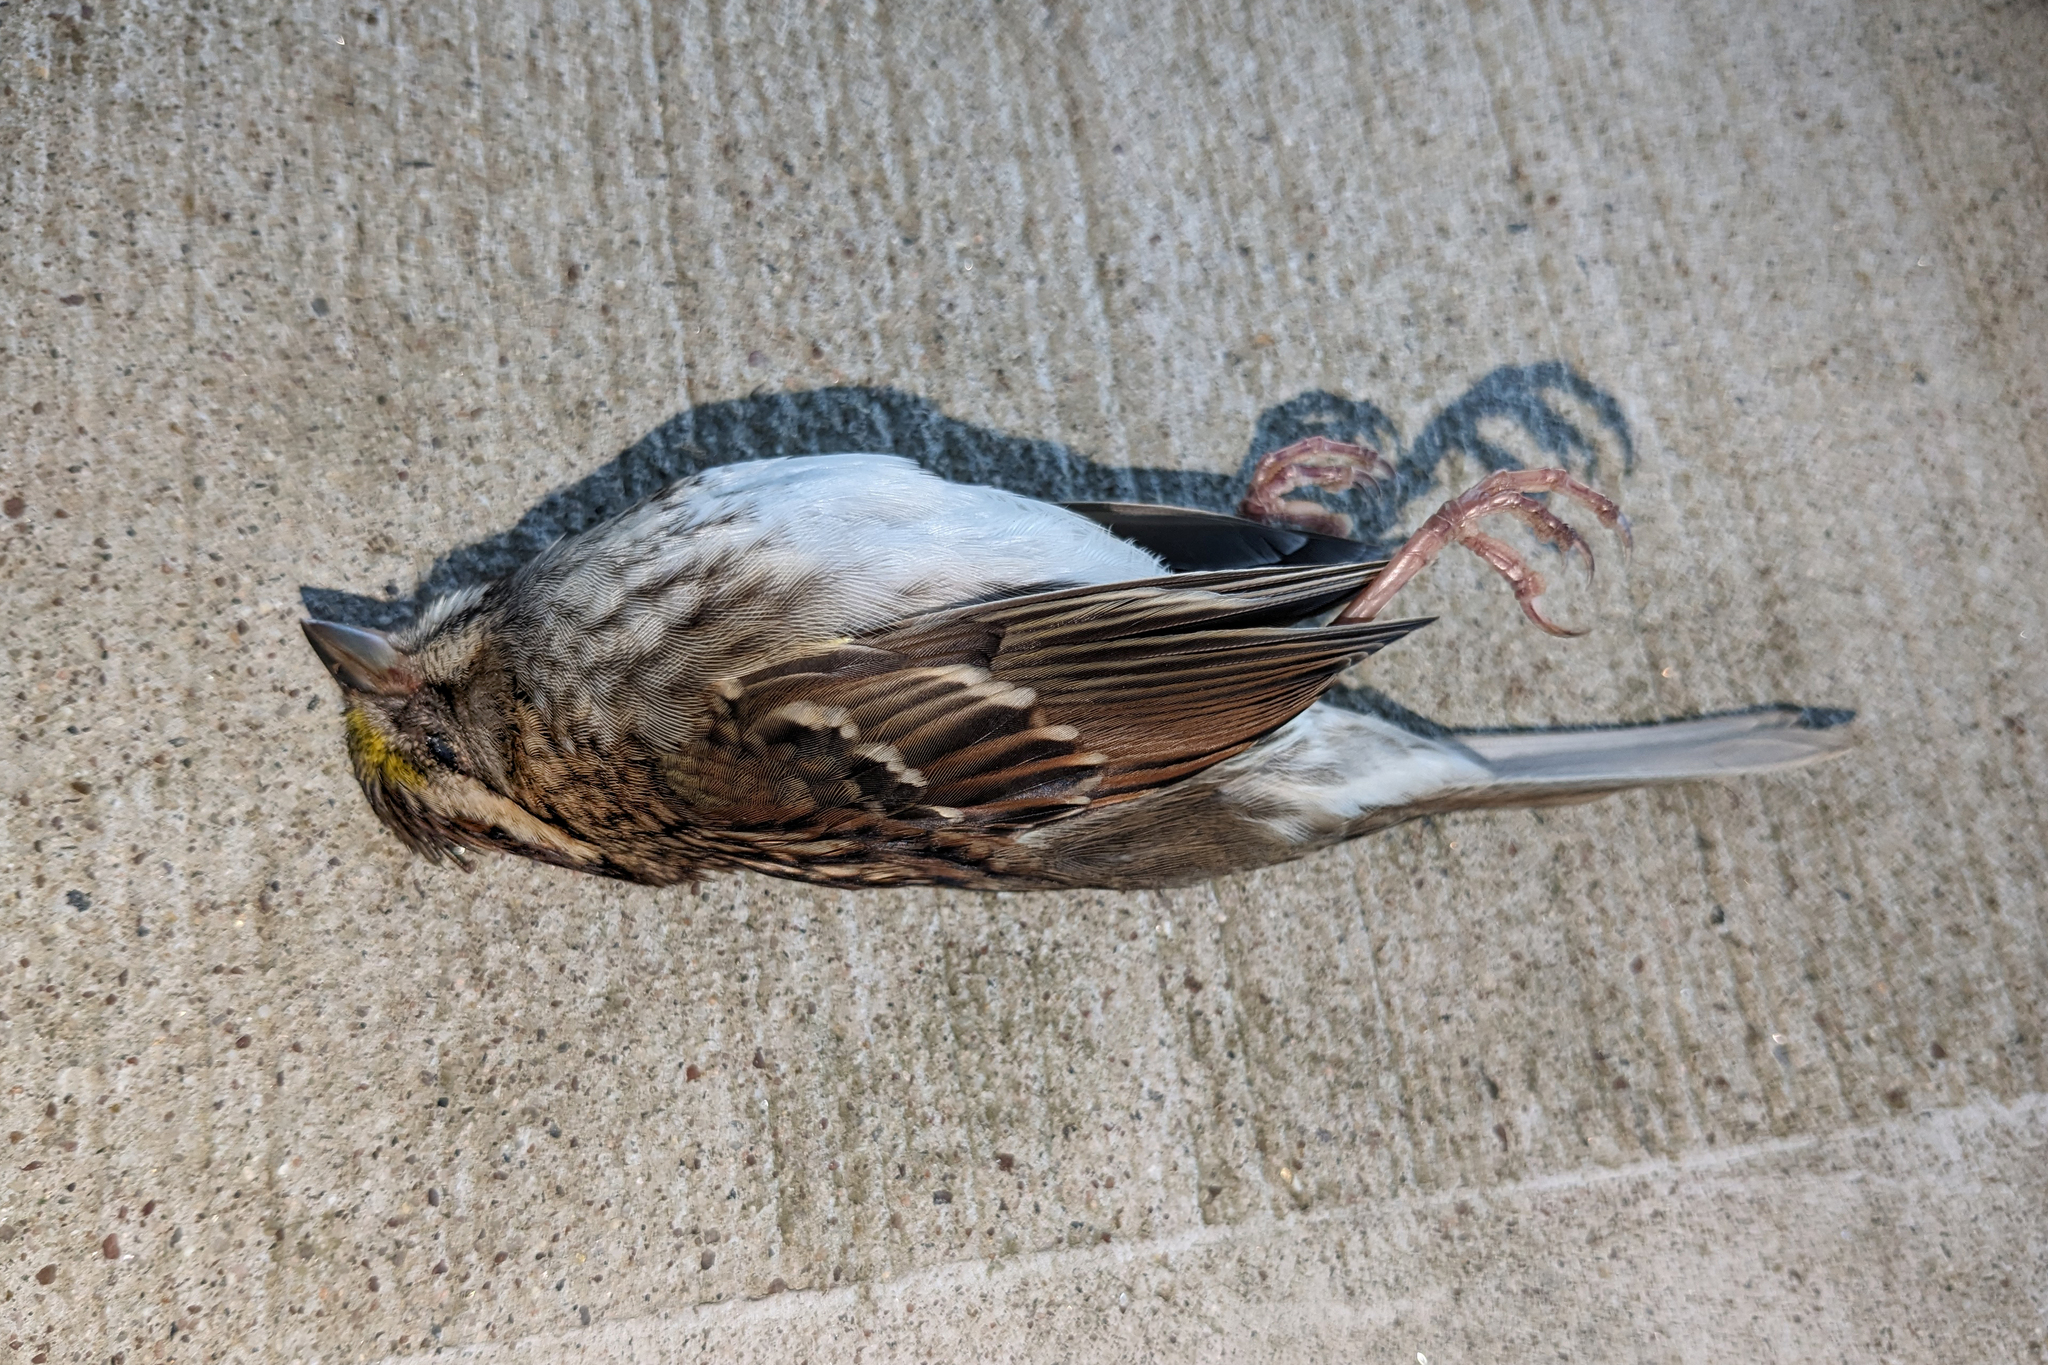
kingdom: Animalia
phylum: Chordata
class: Aves
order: Passeriformes
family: Passerellidae
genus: Zonotrichia
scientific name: Zonotrichia albicollis
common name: White-throated sparrow
